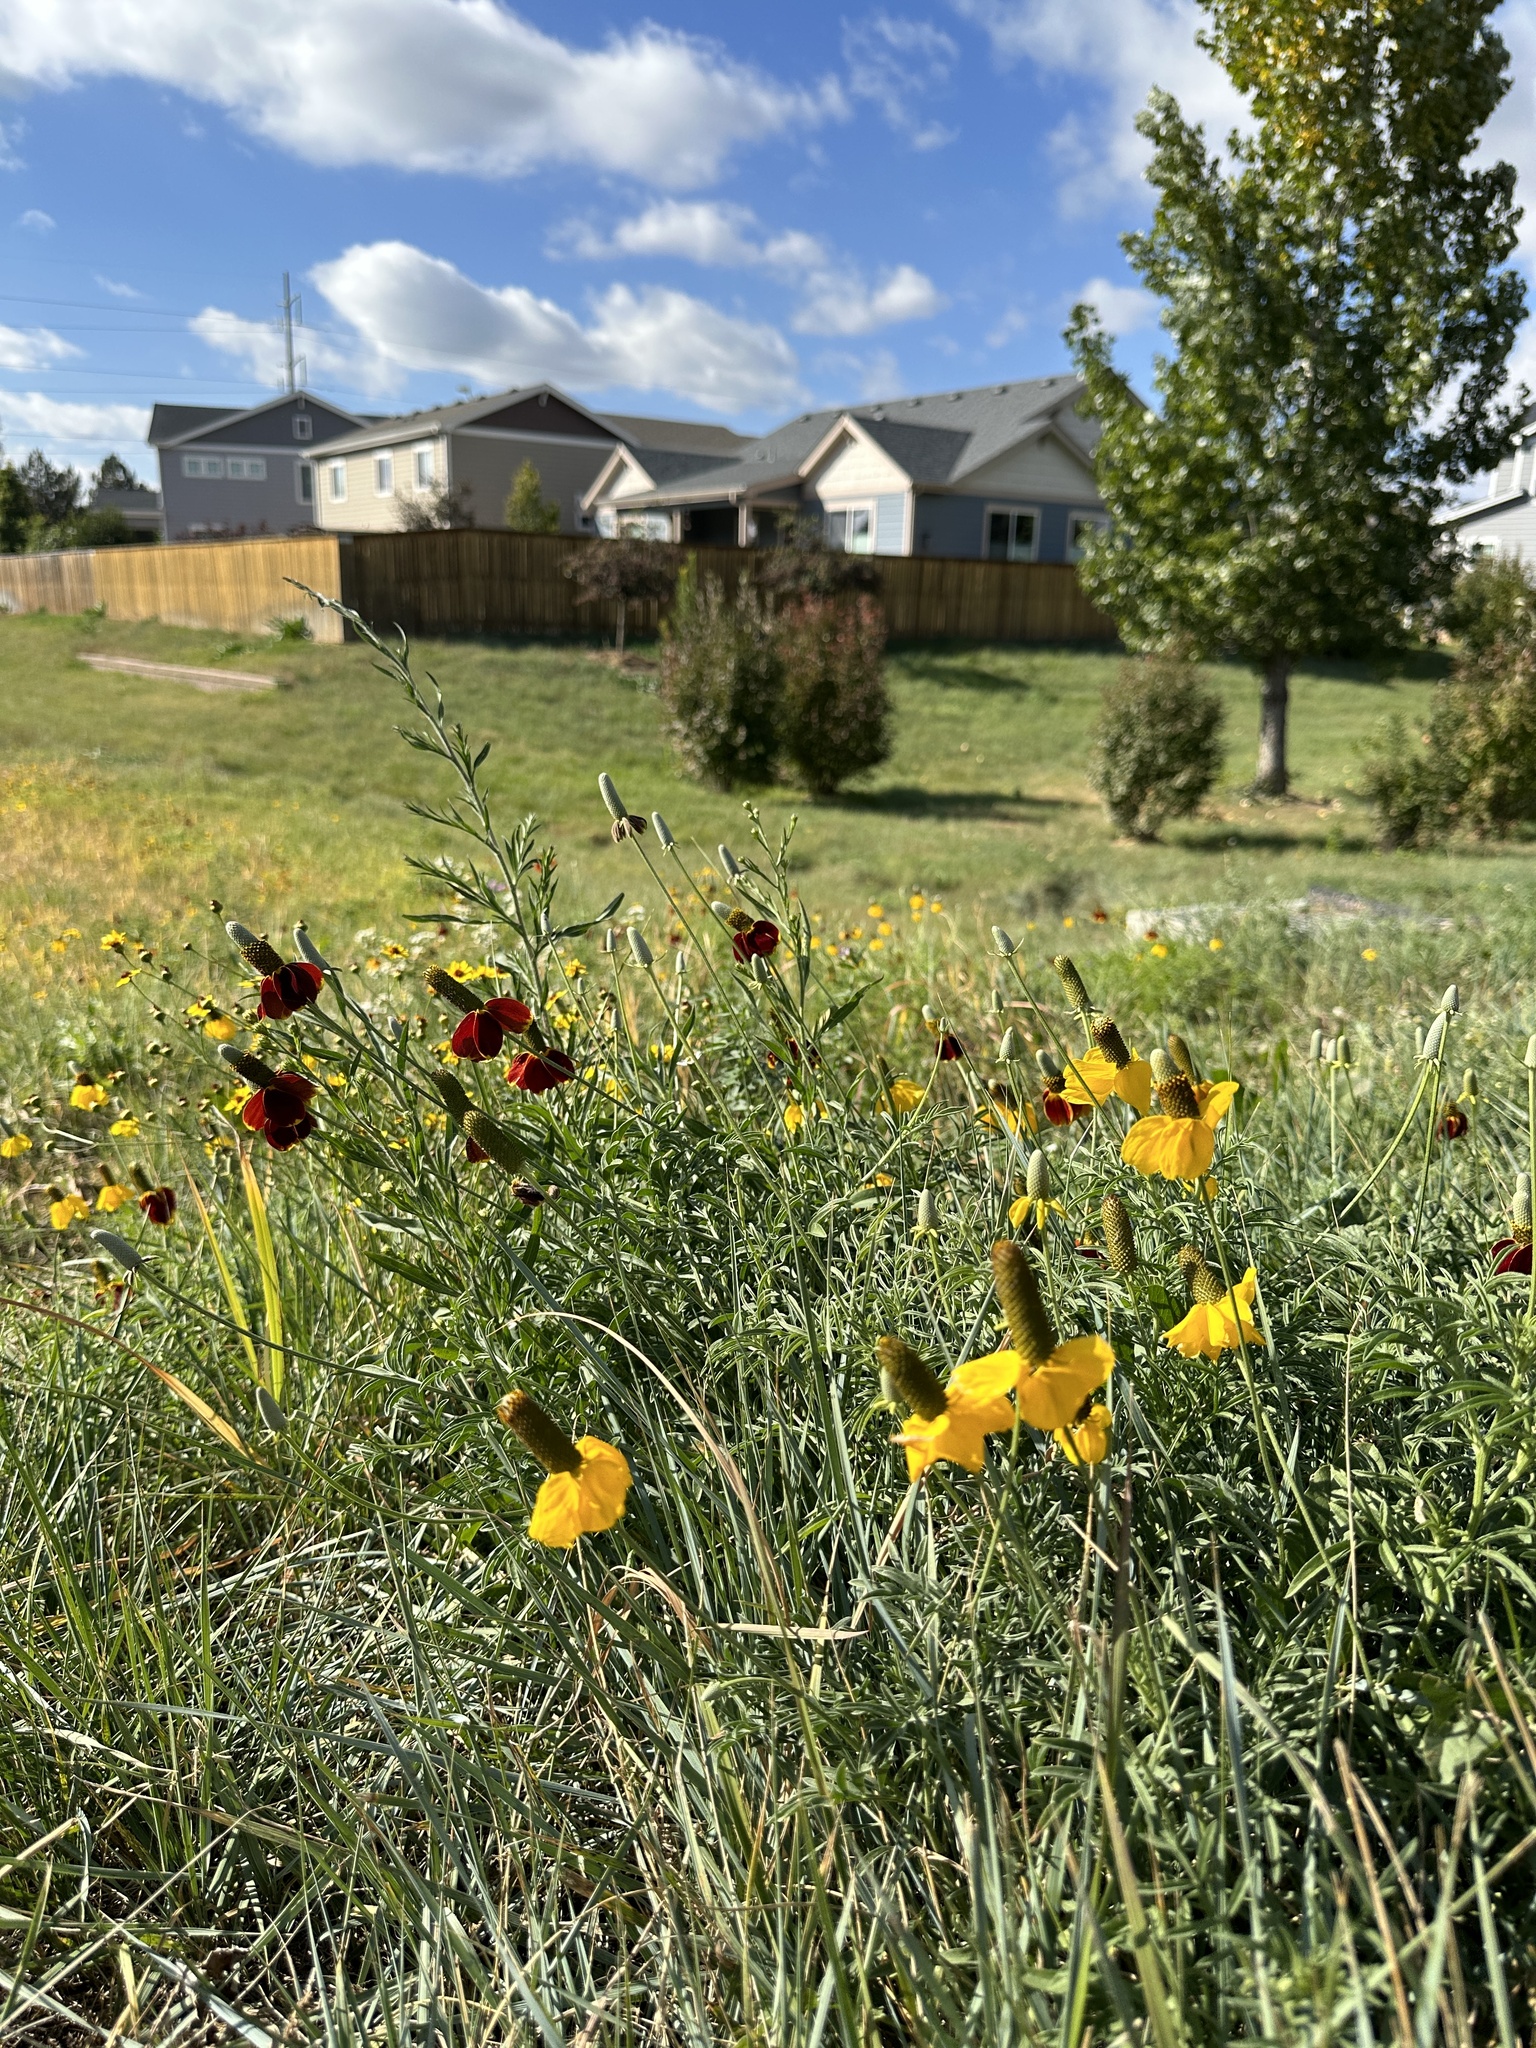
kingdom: Plantae
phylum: Tracheophyta
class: Magnoliopsida
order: Asterales
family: Asteraceae
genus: Ratibida
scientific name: Ratibida columnifera
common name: Prairie coneflower
